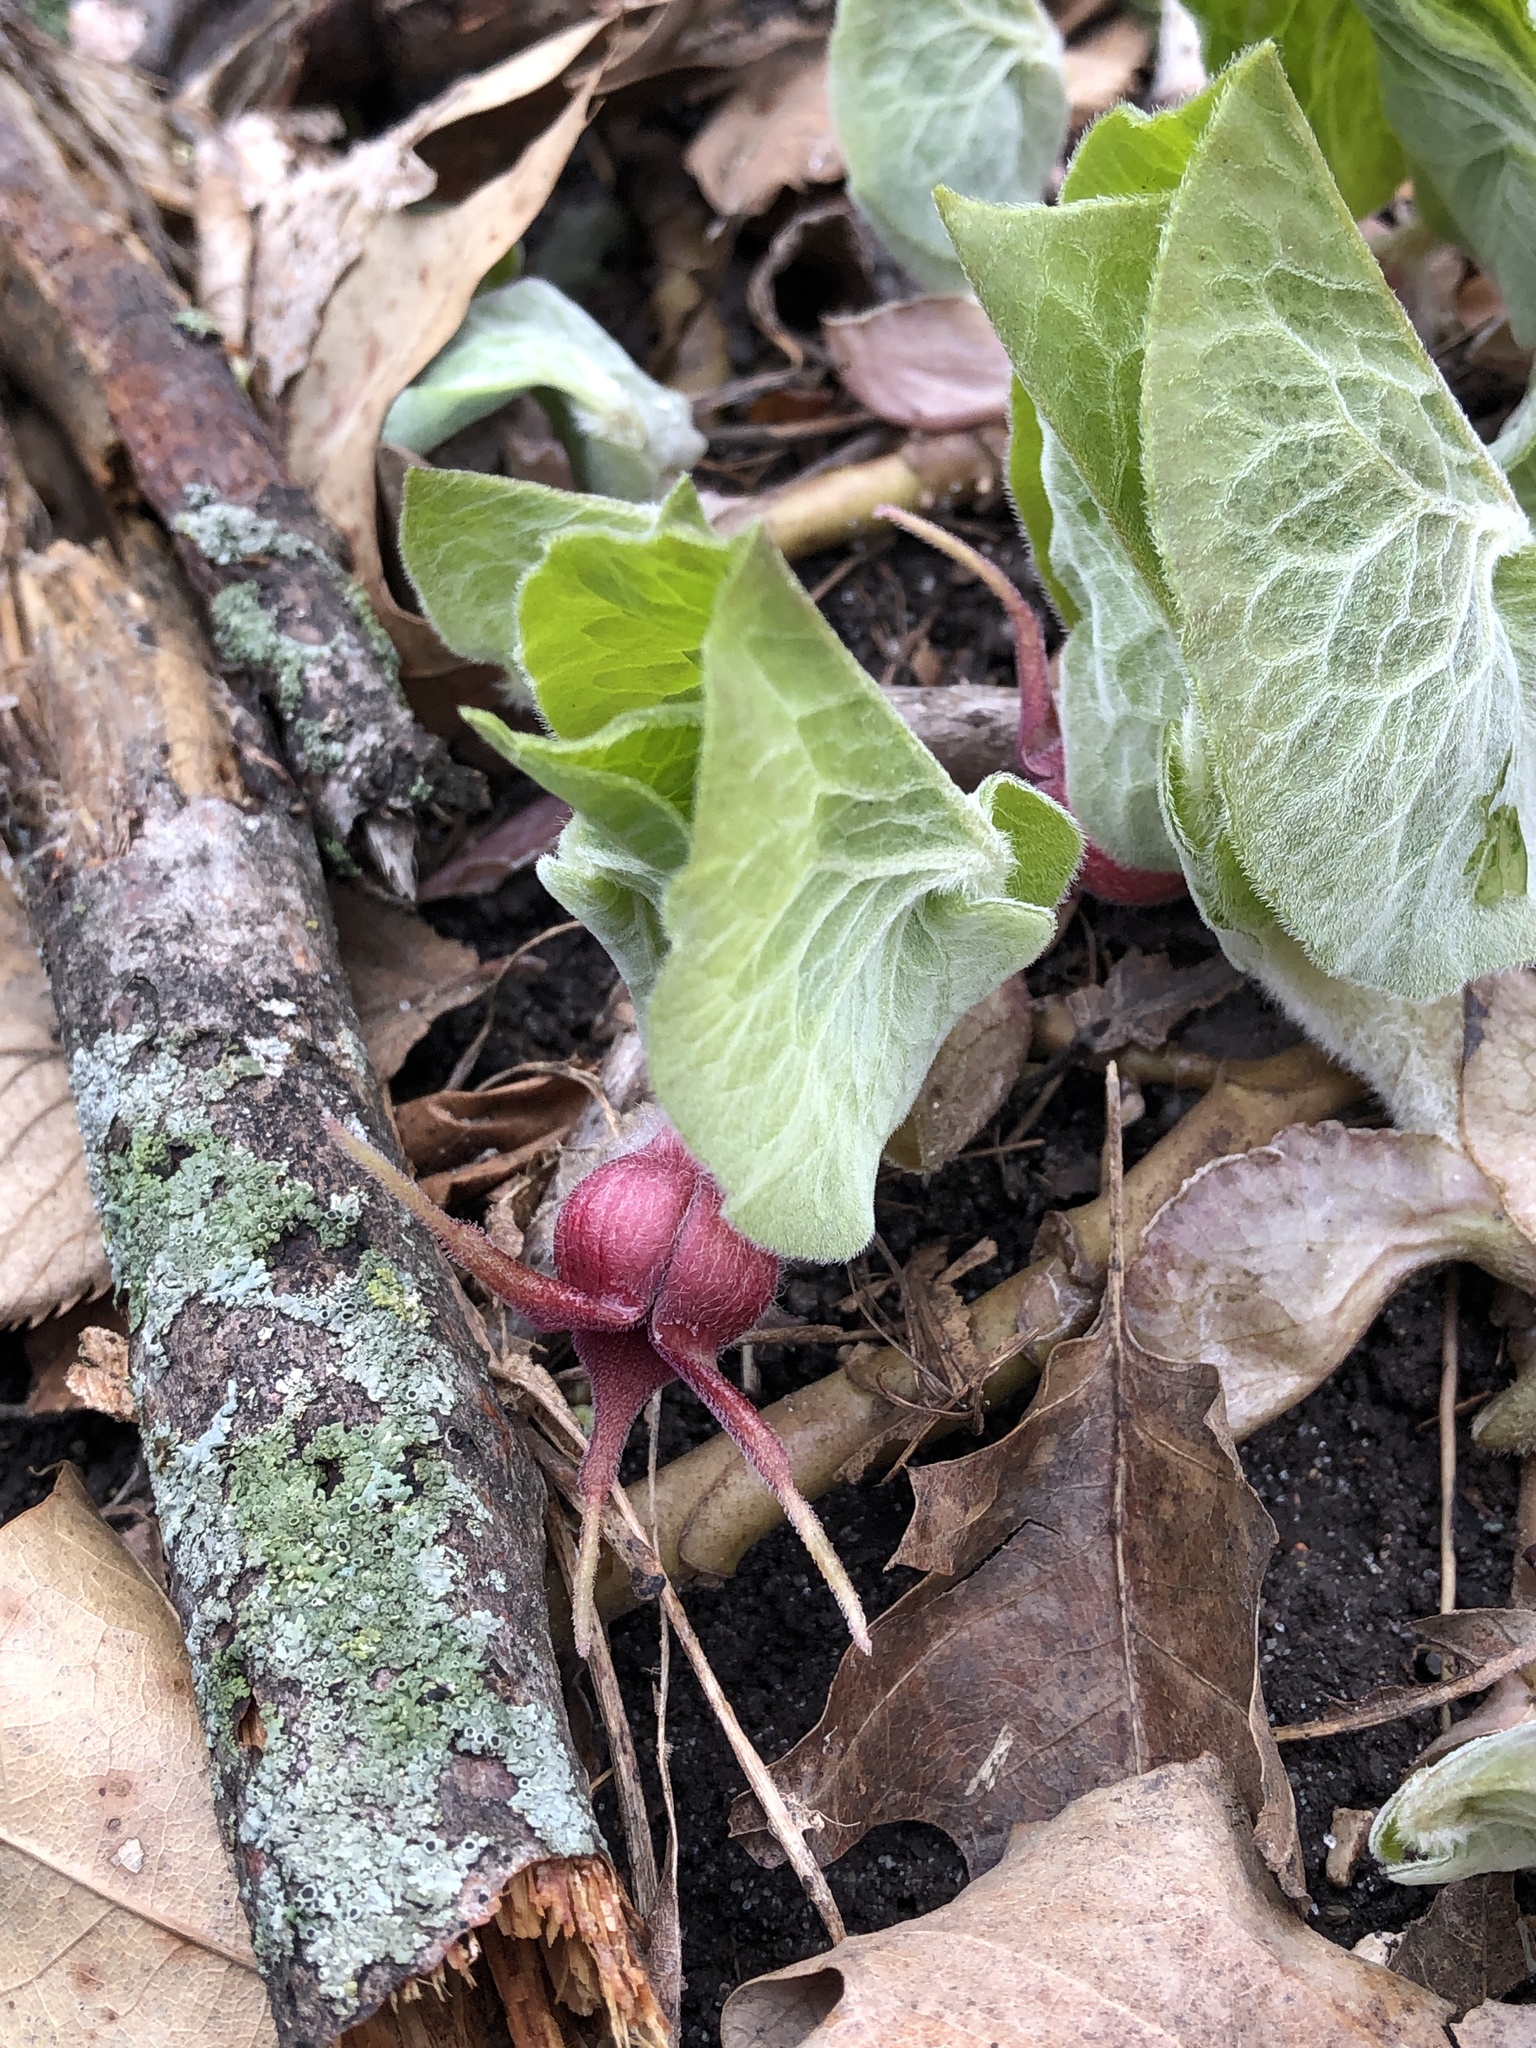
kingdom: Plantae
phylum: Tracheophyta
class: Magnoliopsida
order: Piperales
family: Aristolochiaceae
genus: Asarum
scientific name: Asarum canadense
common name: Wild ginger
